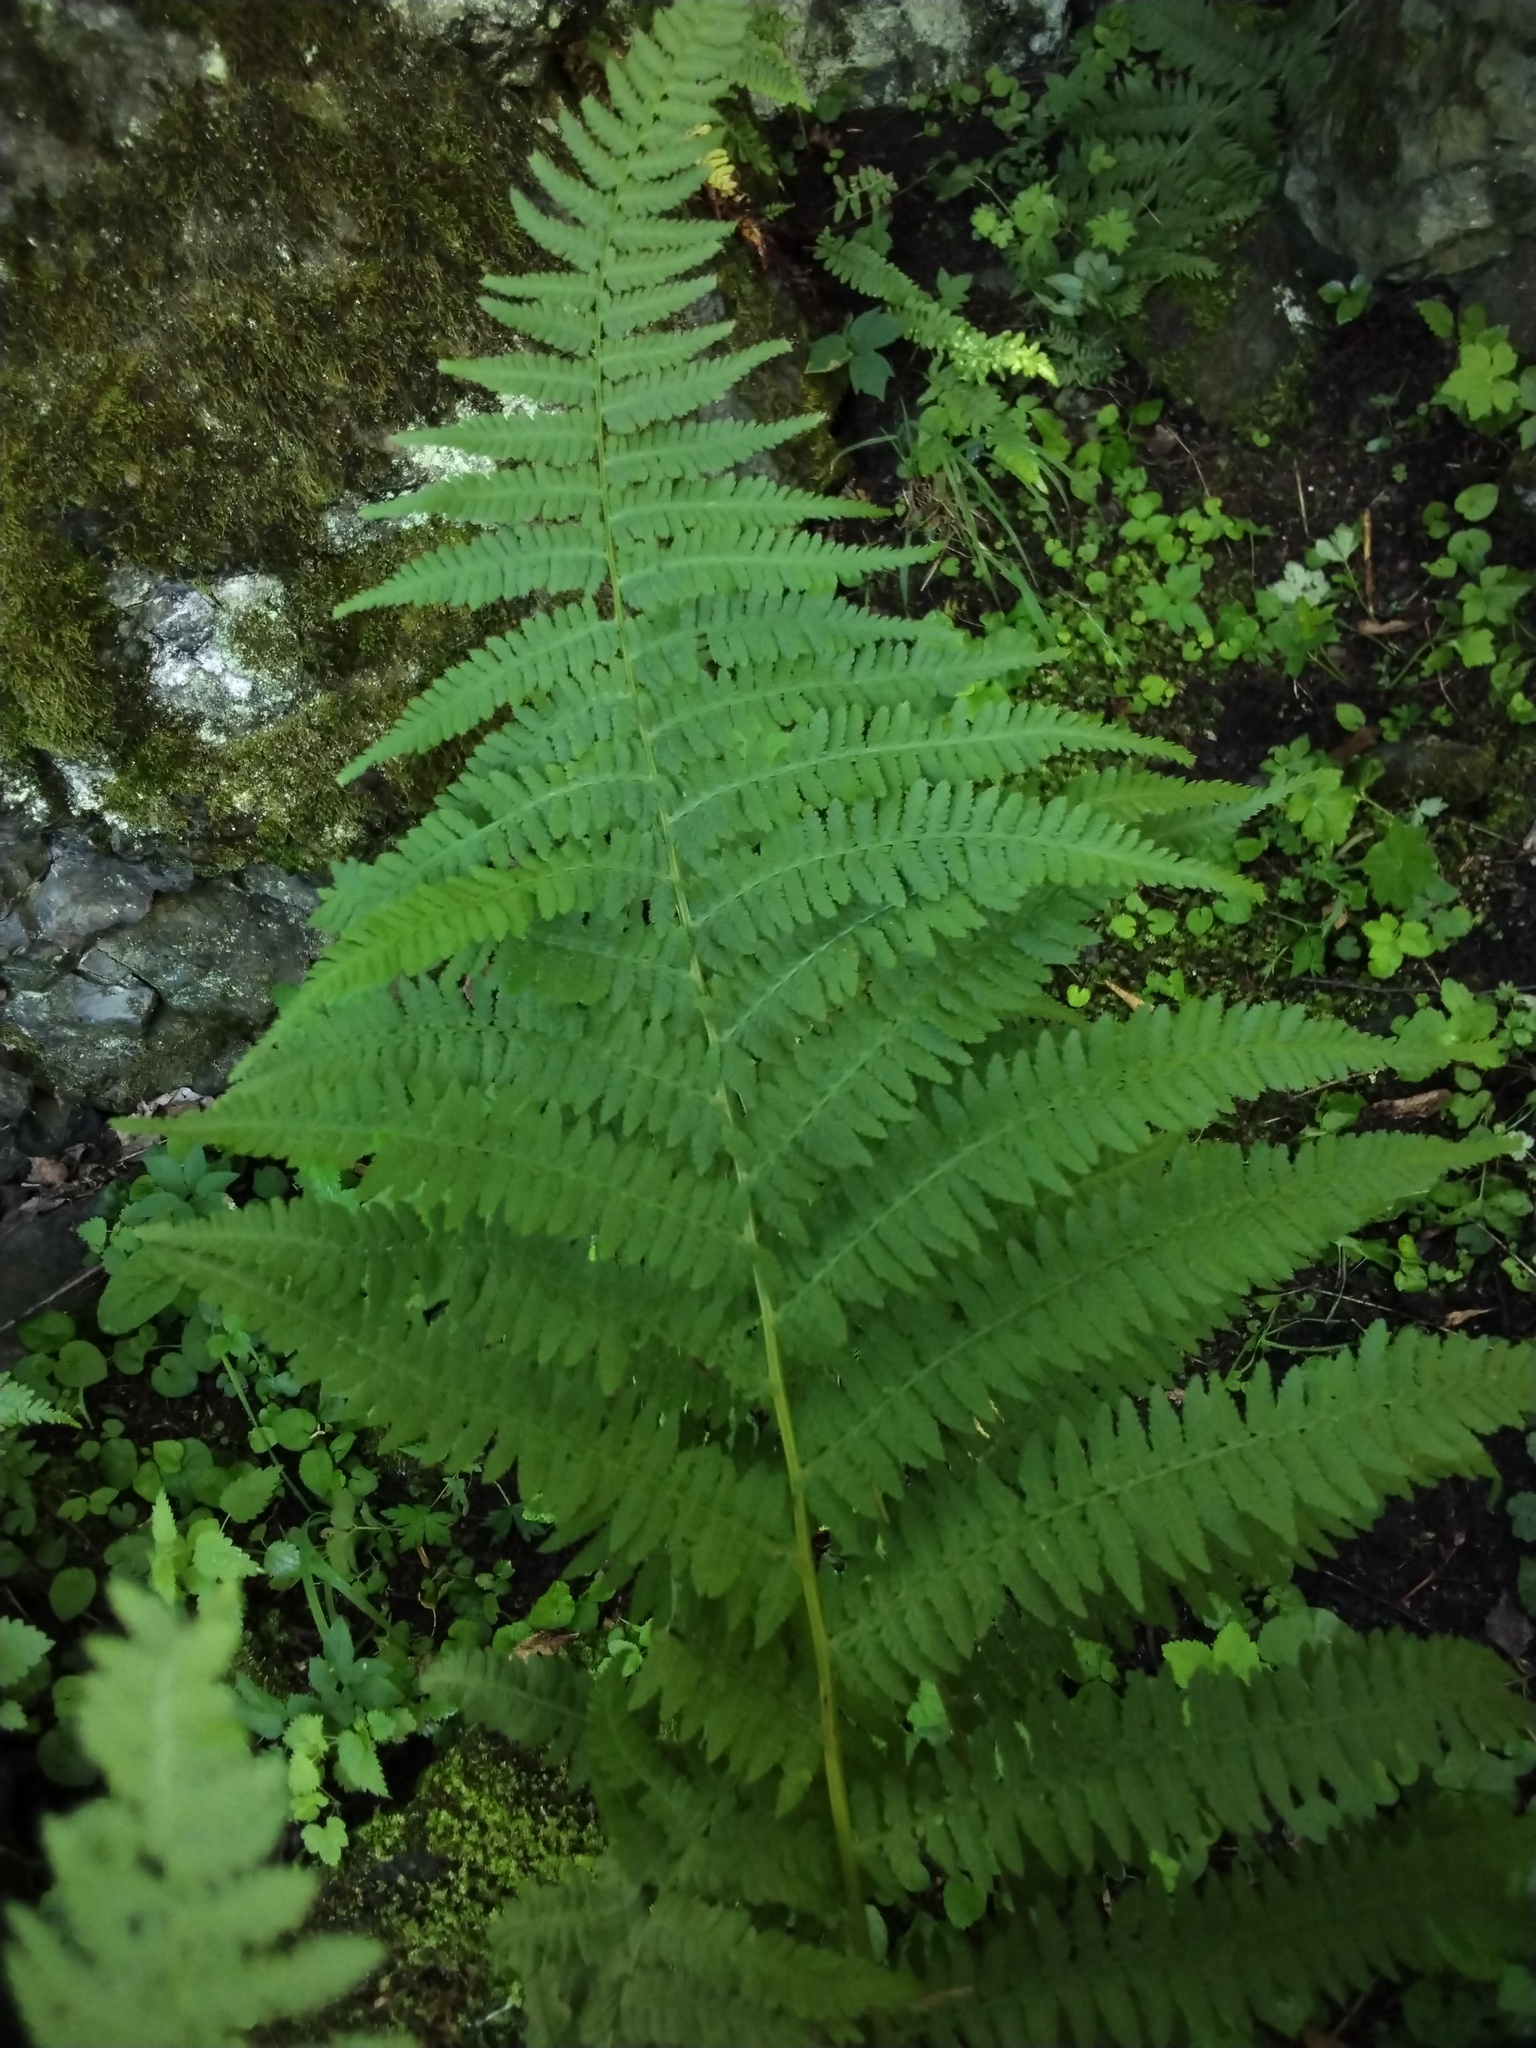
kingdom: Plantae
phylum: Tracheophyta
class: Polypodiopsida
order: Polypodiales
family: Athyriaceae
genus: Athyrium
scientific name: Athyrium filix-femina
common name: Lady fern
